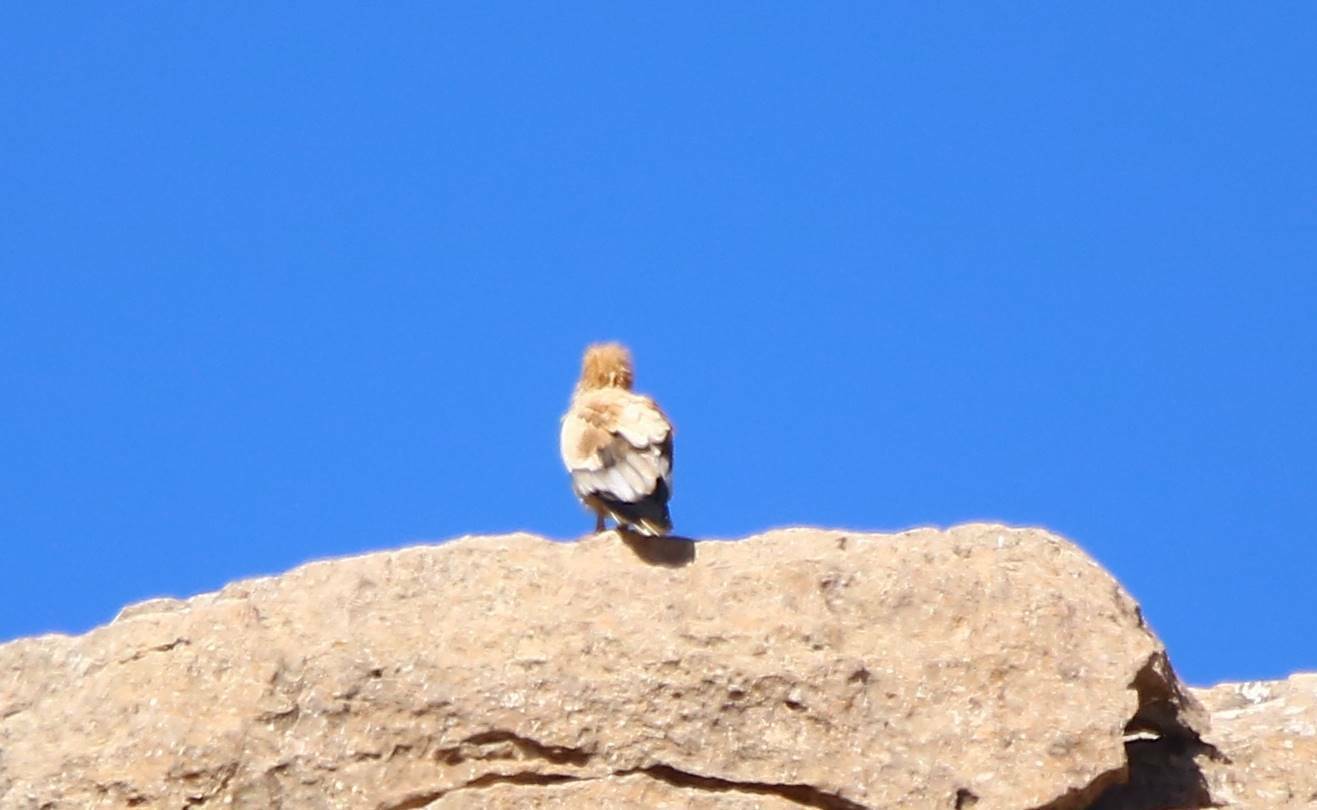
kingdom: Animalia
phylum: Chordata
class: Aves
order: Accipitriformes
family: Accipitridae
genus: Neophron
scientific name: Neophron percnopterus
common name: Egyptian vulture
